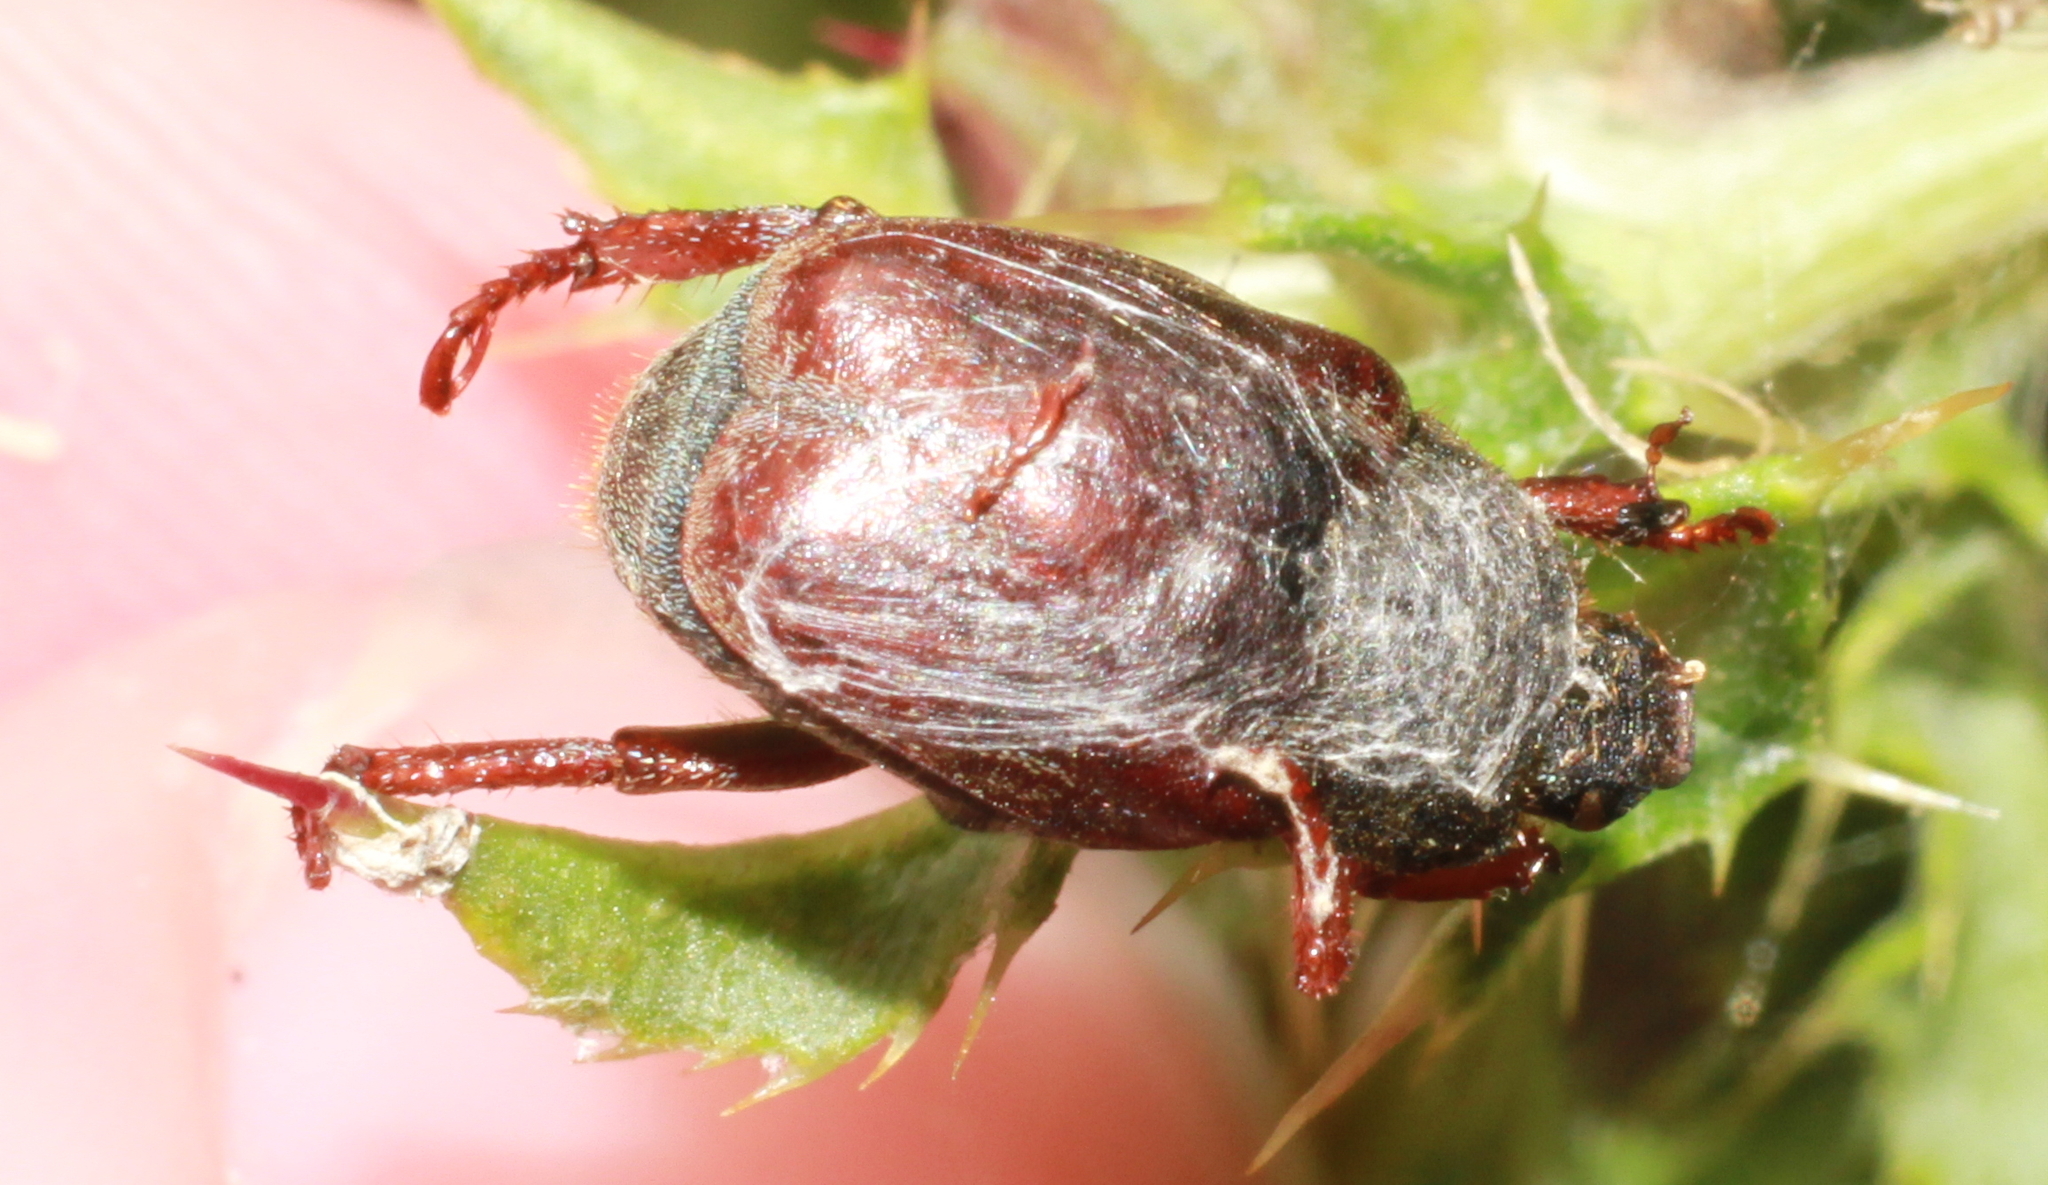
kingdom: Animalia
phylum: Arthropoda
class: Insecta
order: Coleoptera
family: Scarabaeidae
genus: Hoplia
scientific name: Hoplia philanthus
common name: Welsh chafer
